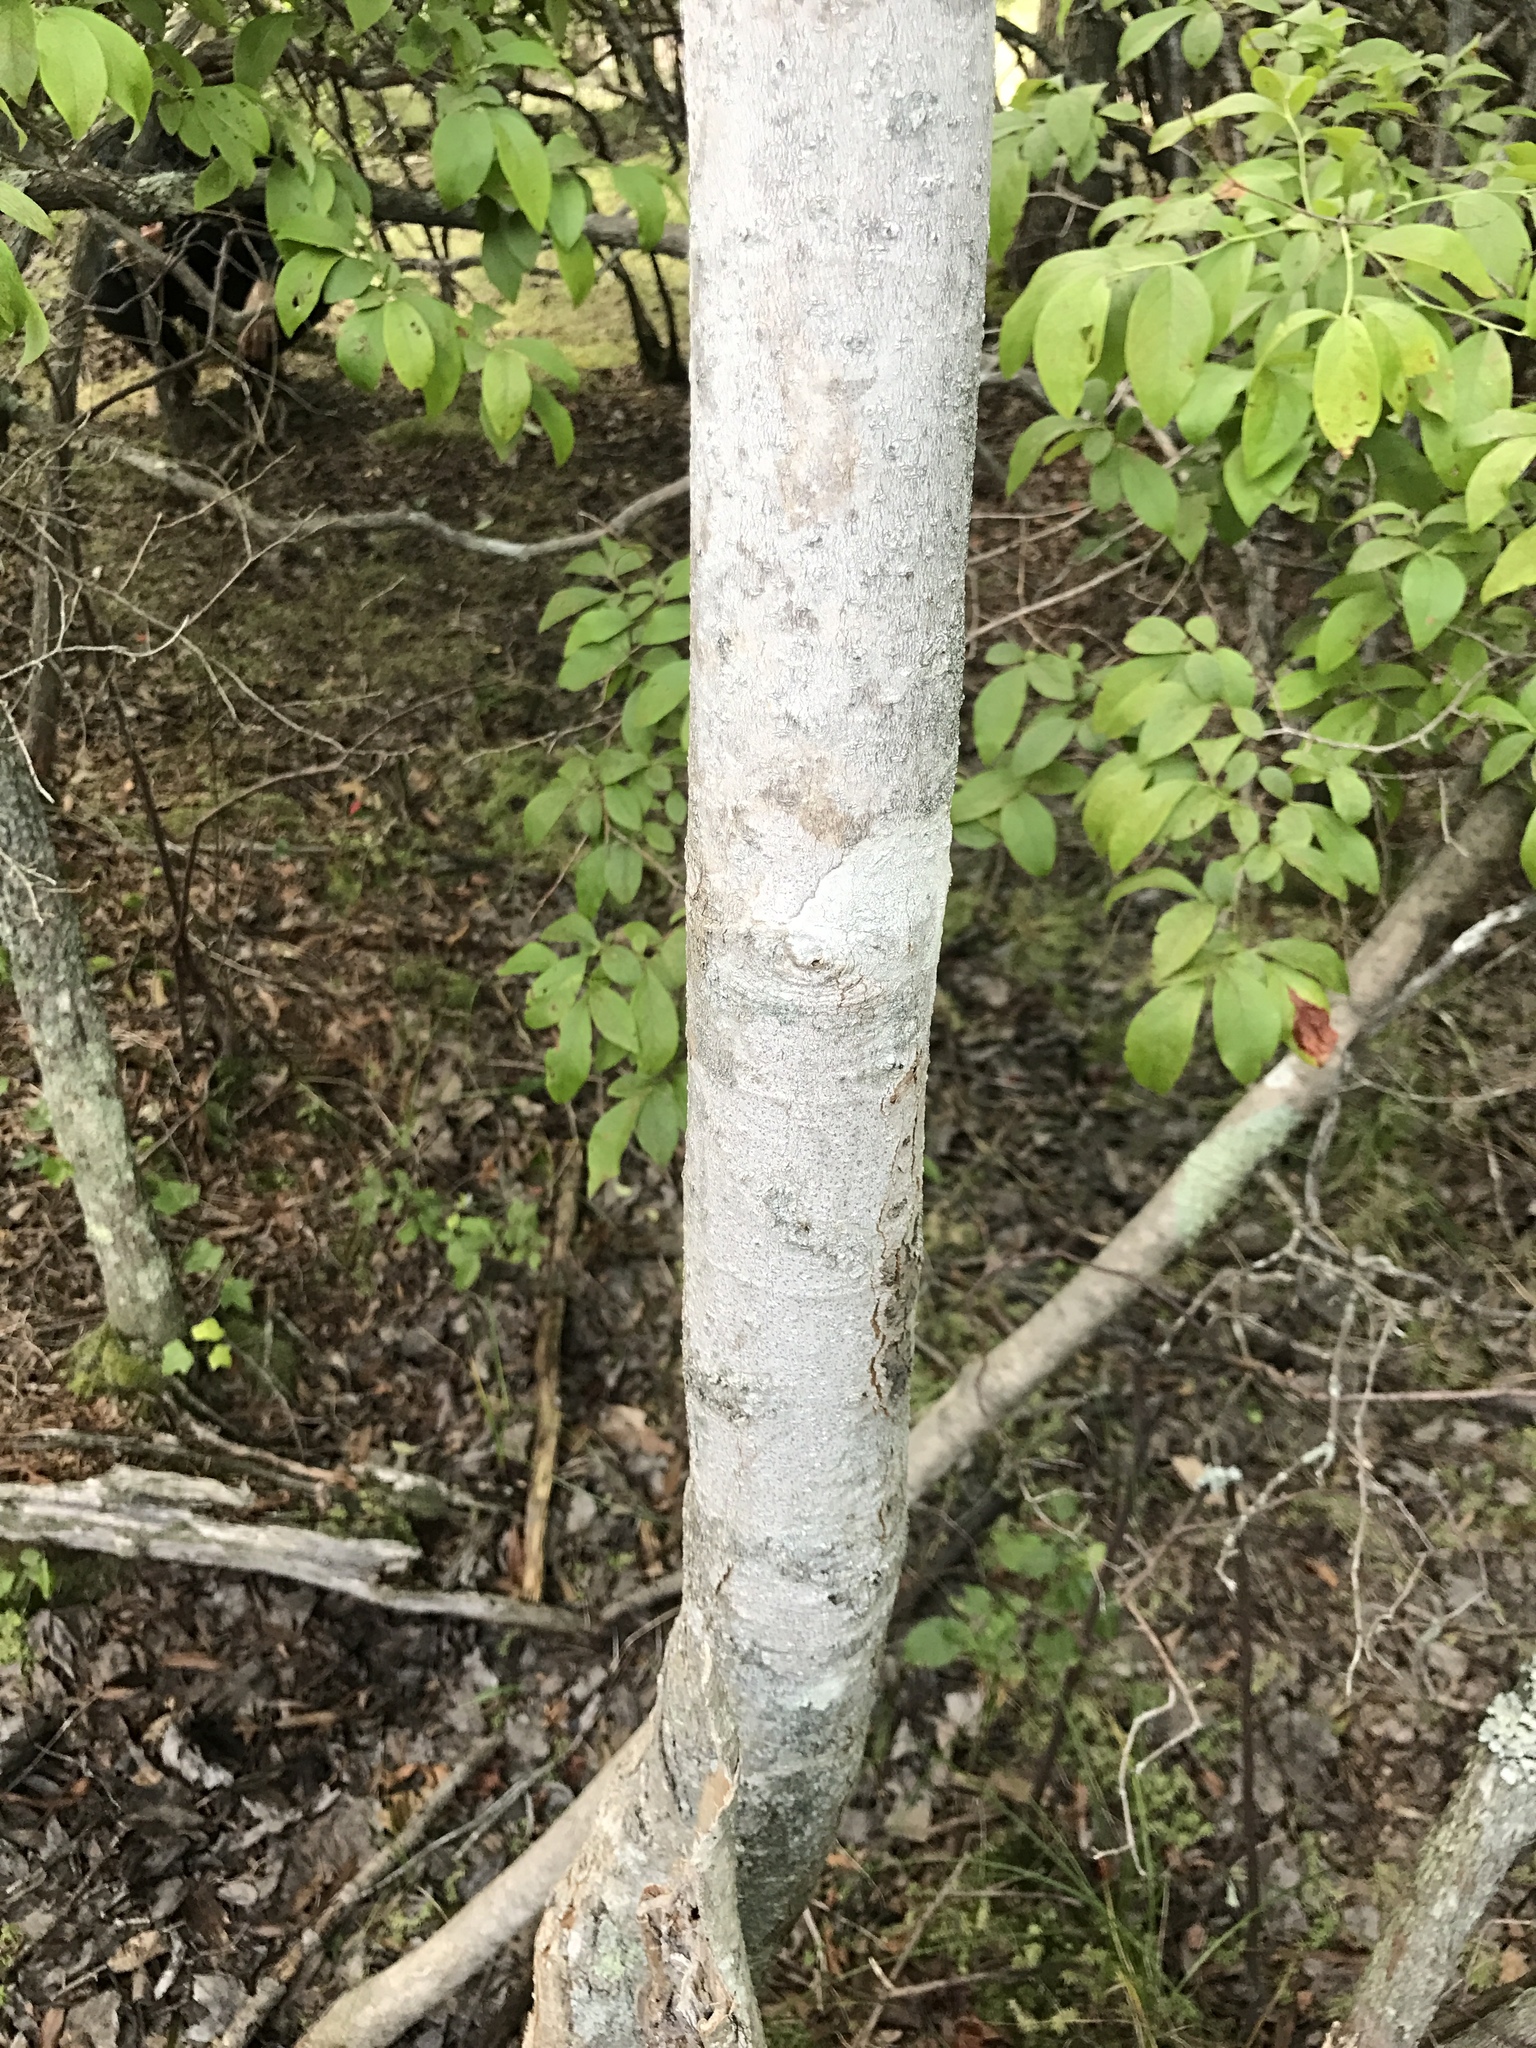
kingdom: Plantae
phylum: Tracheophyta
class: Magnoliopsida
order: Magnoliales
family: Magnoliaceae
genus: Magnolia
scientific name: Magnolia virginiana
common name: Swamp bay
